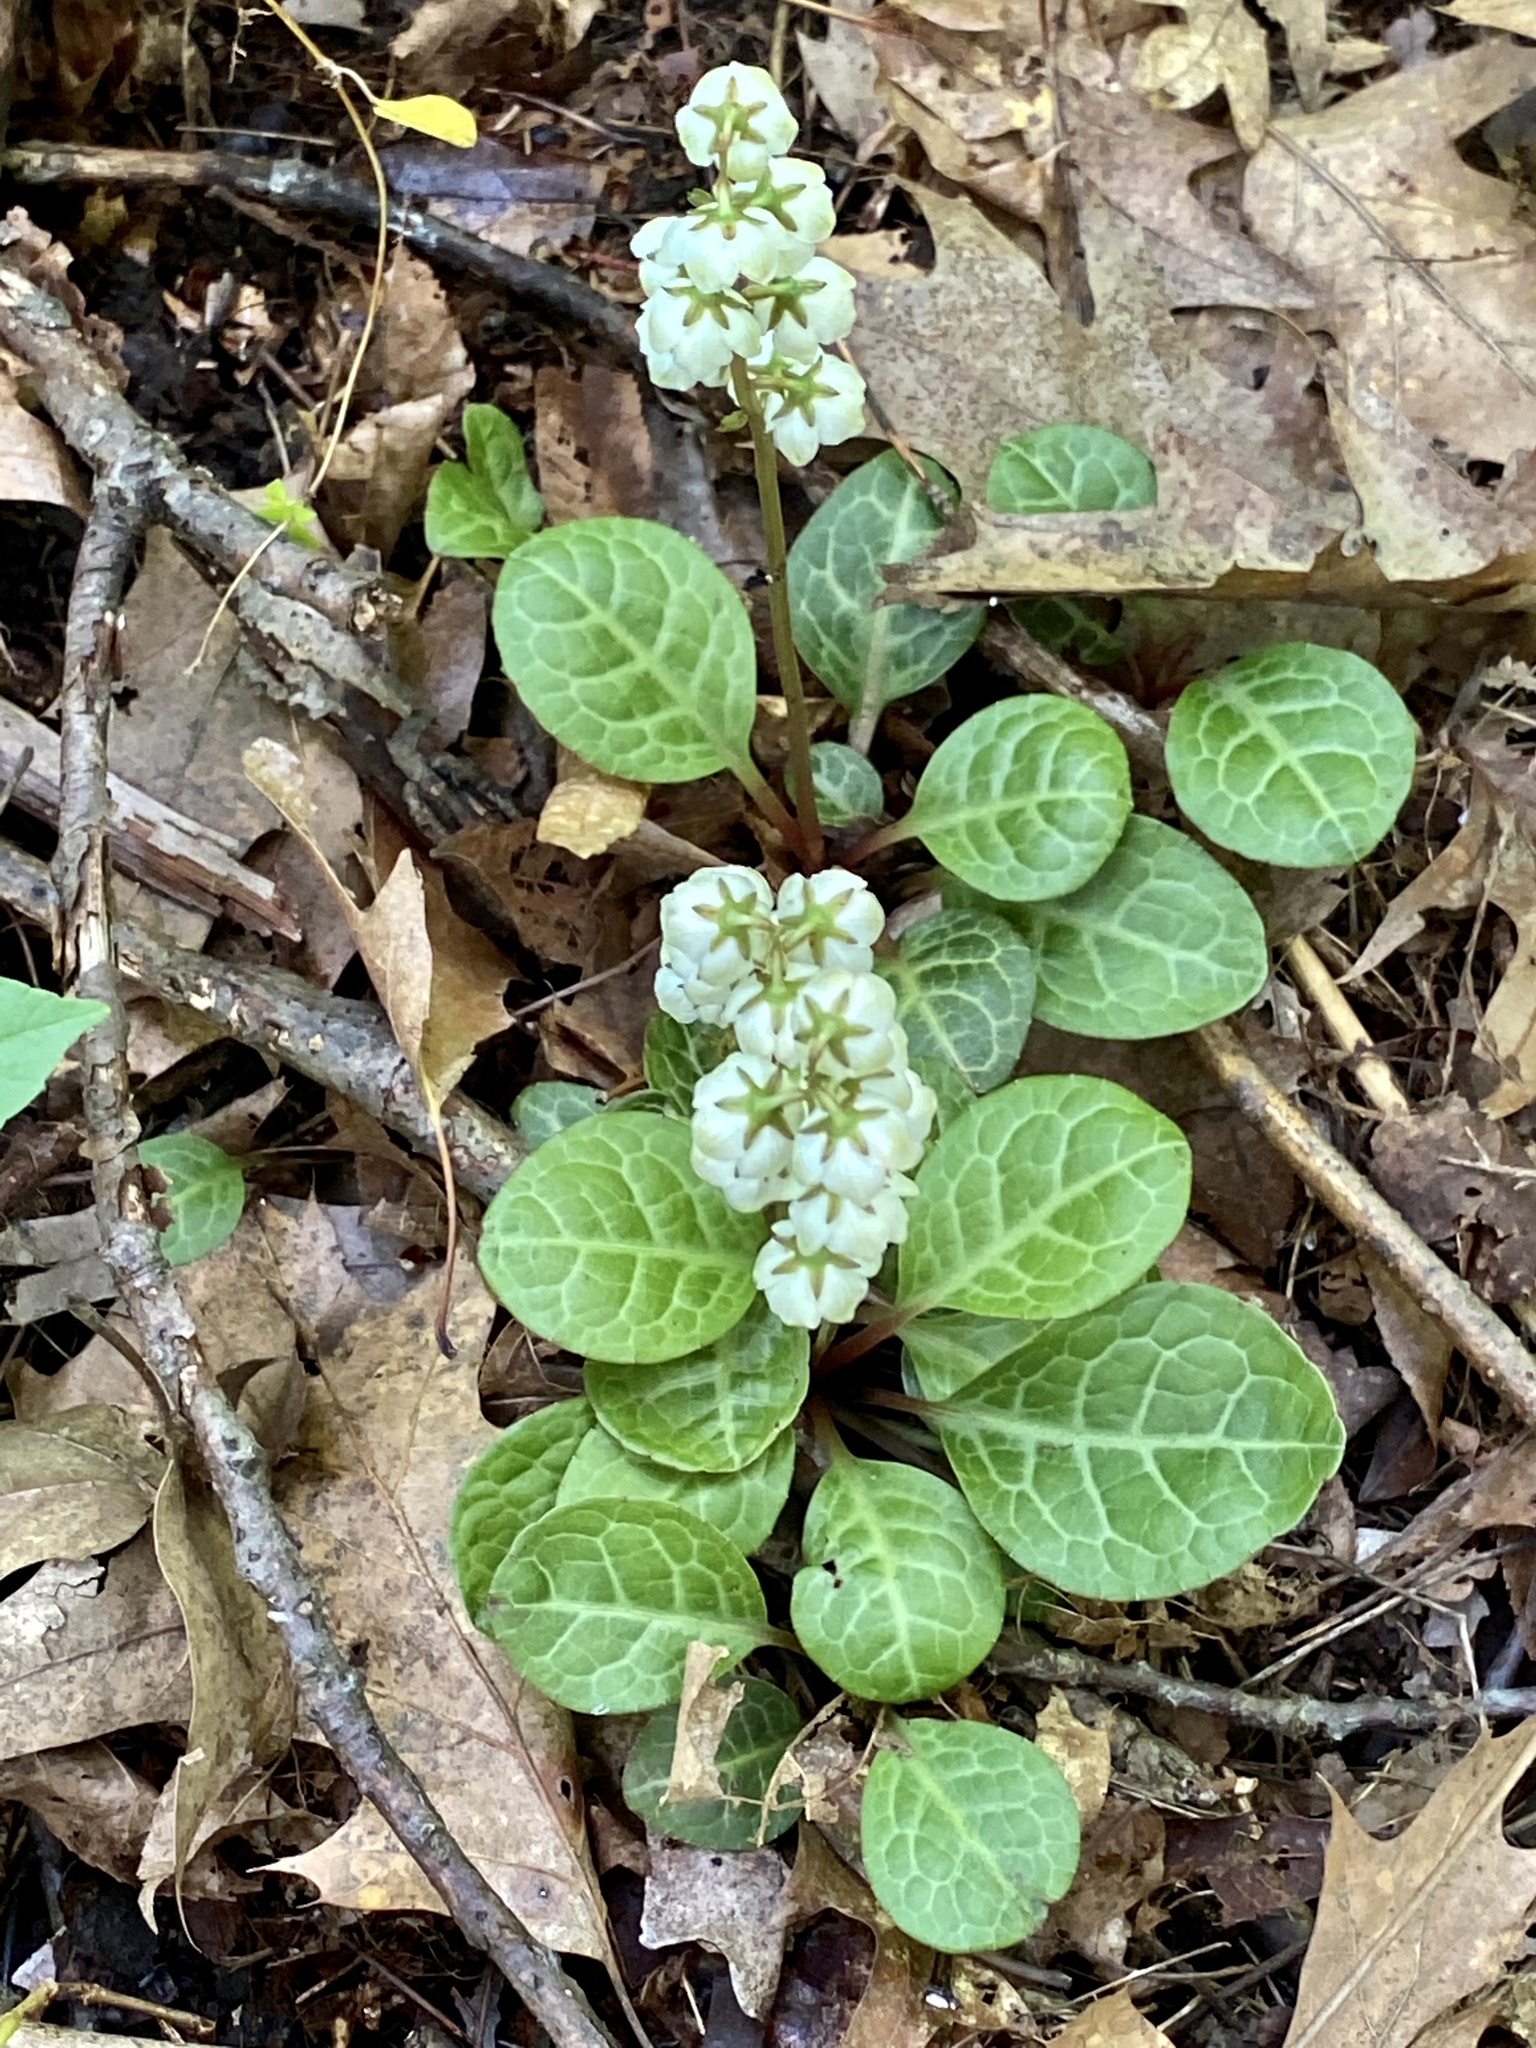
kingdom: Plantae
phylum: Tracheophyta
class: Magnoliopsida
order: Ericales
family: Ericaceae
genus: Pyrola
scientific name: Pyrola americana
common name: American wintergreen
